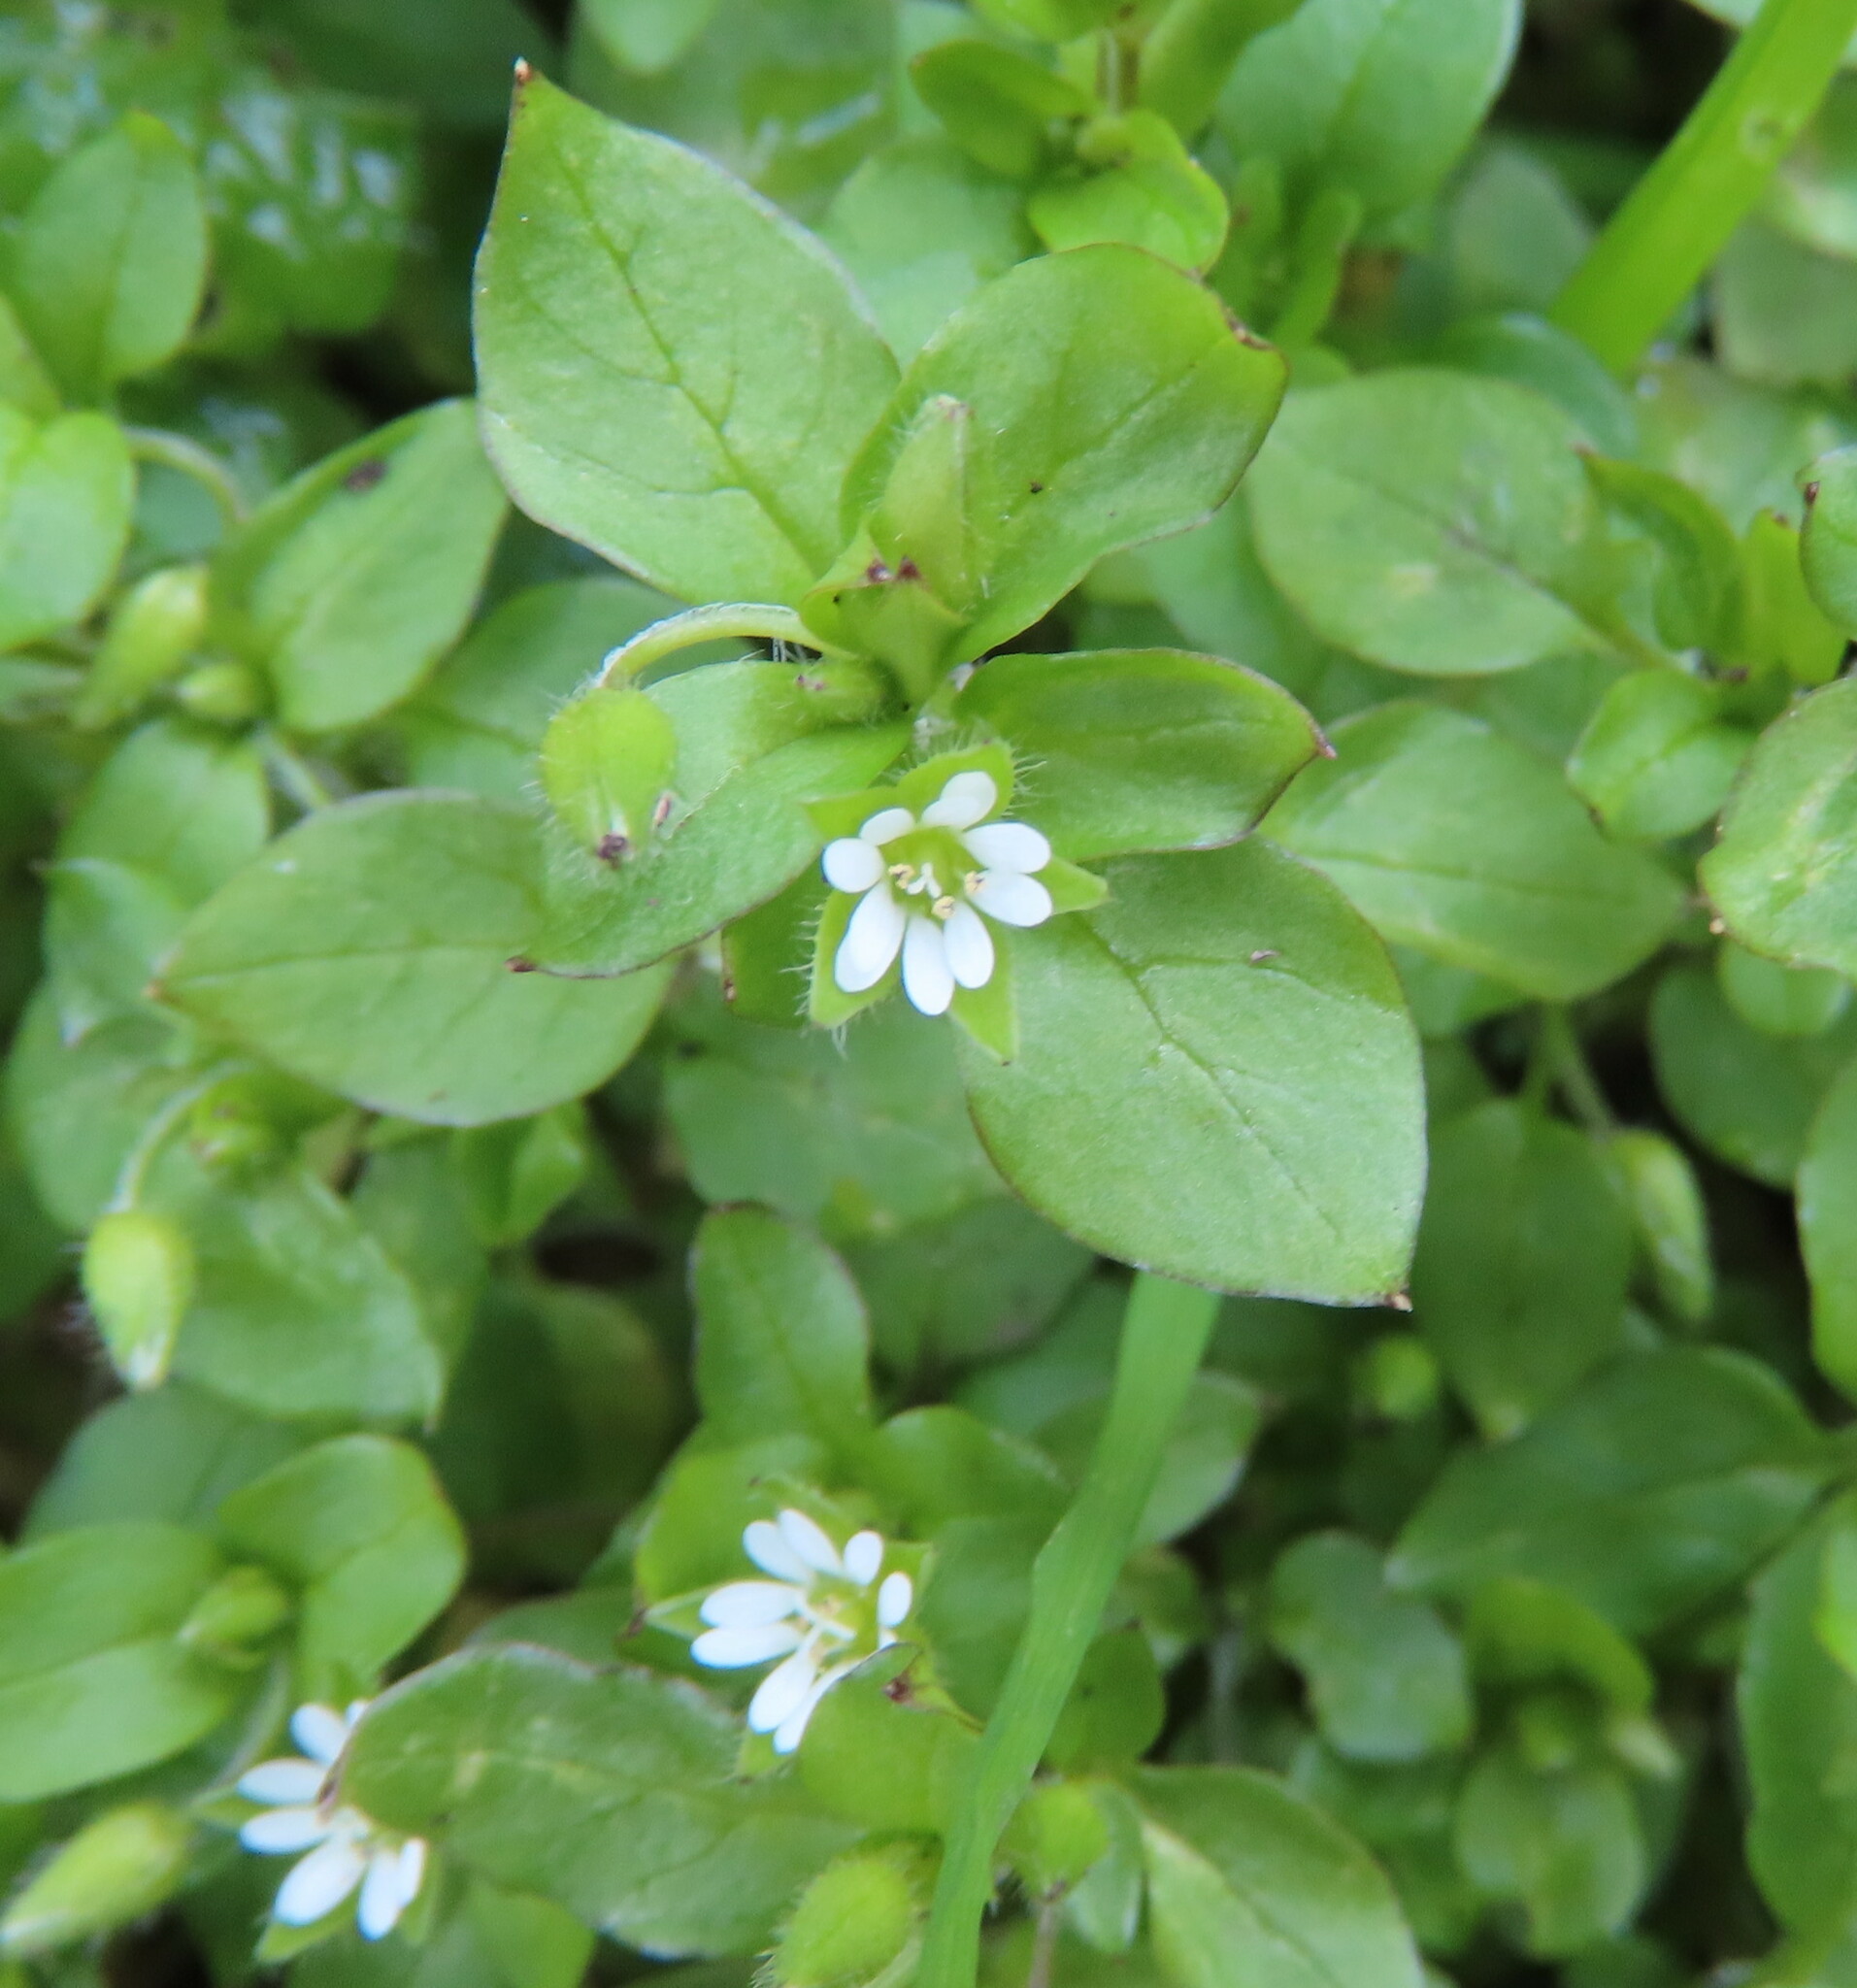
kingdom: Plantae
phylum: Tracheophyta
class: Magnoliopsida
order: Caryophyllales
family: Caryophyllaceae
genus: Stellaria
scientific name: Stellaria media
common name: Common chickweed
